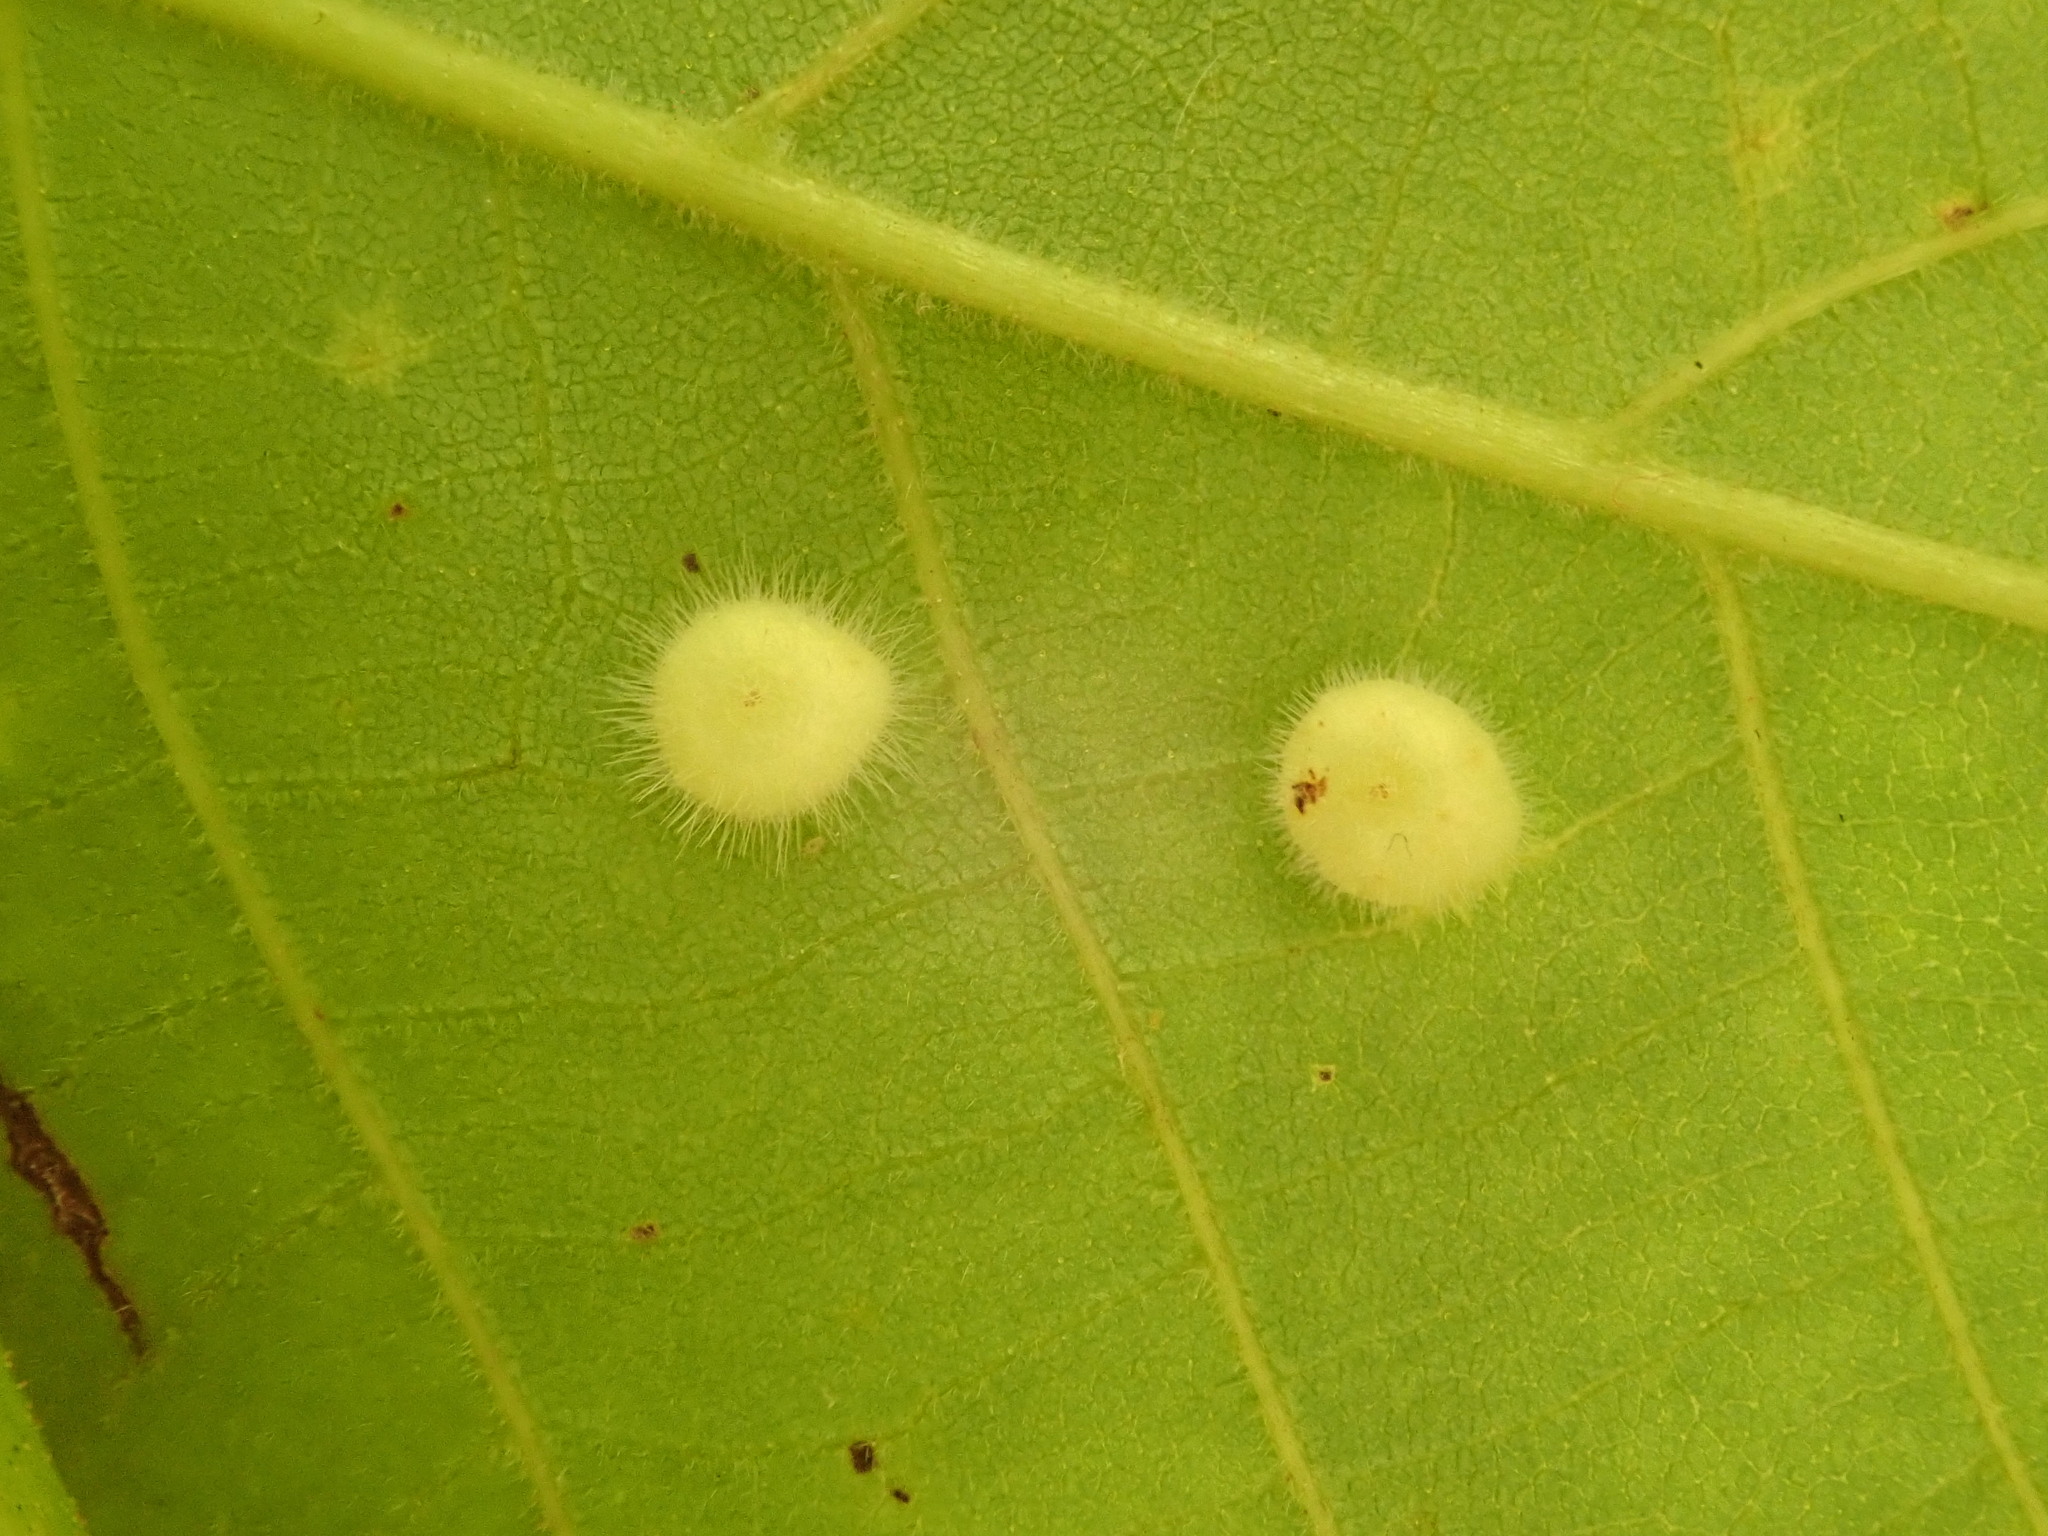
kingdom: Animalia
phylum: Arthropoda
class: Insecta
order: Diptera
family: Cecidomyiidae
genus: Caryomyia
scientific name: Caryomyia thompsoni
